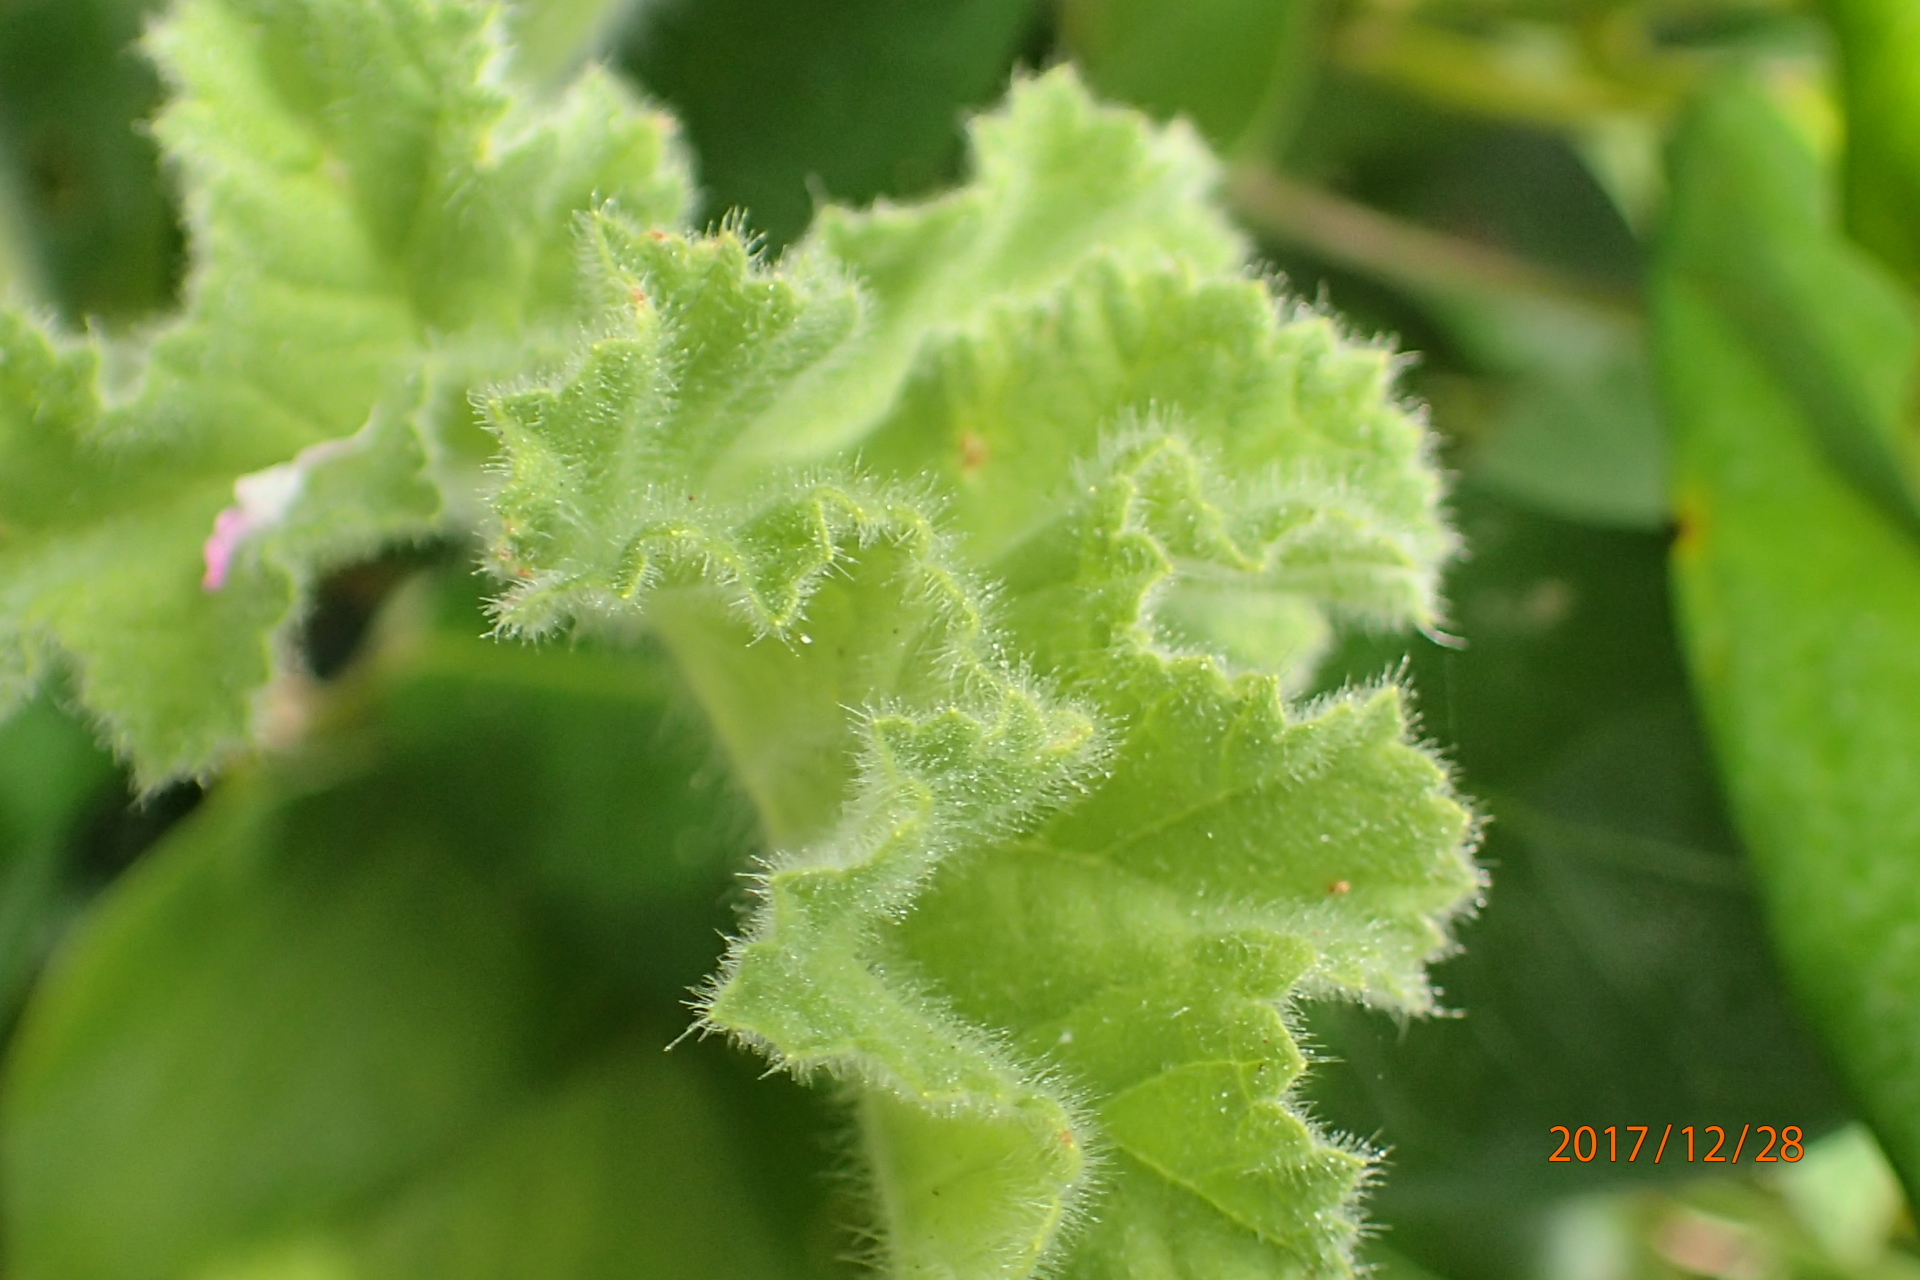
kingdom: Plantae
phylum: Tracheophyta
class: Magnoliopsida
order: Geraniales
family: Geraniaceae
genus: Pelargonium
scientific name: Pelargonium capitatum
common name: Rose scented geranium
